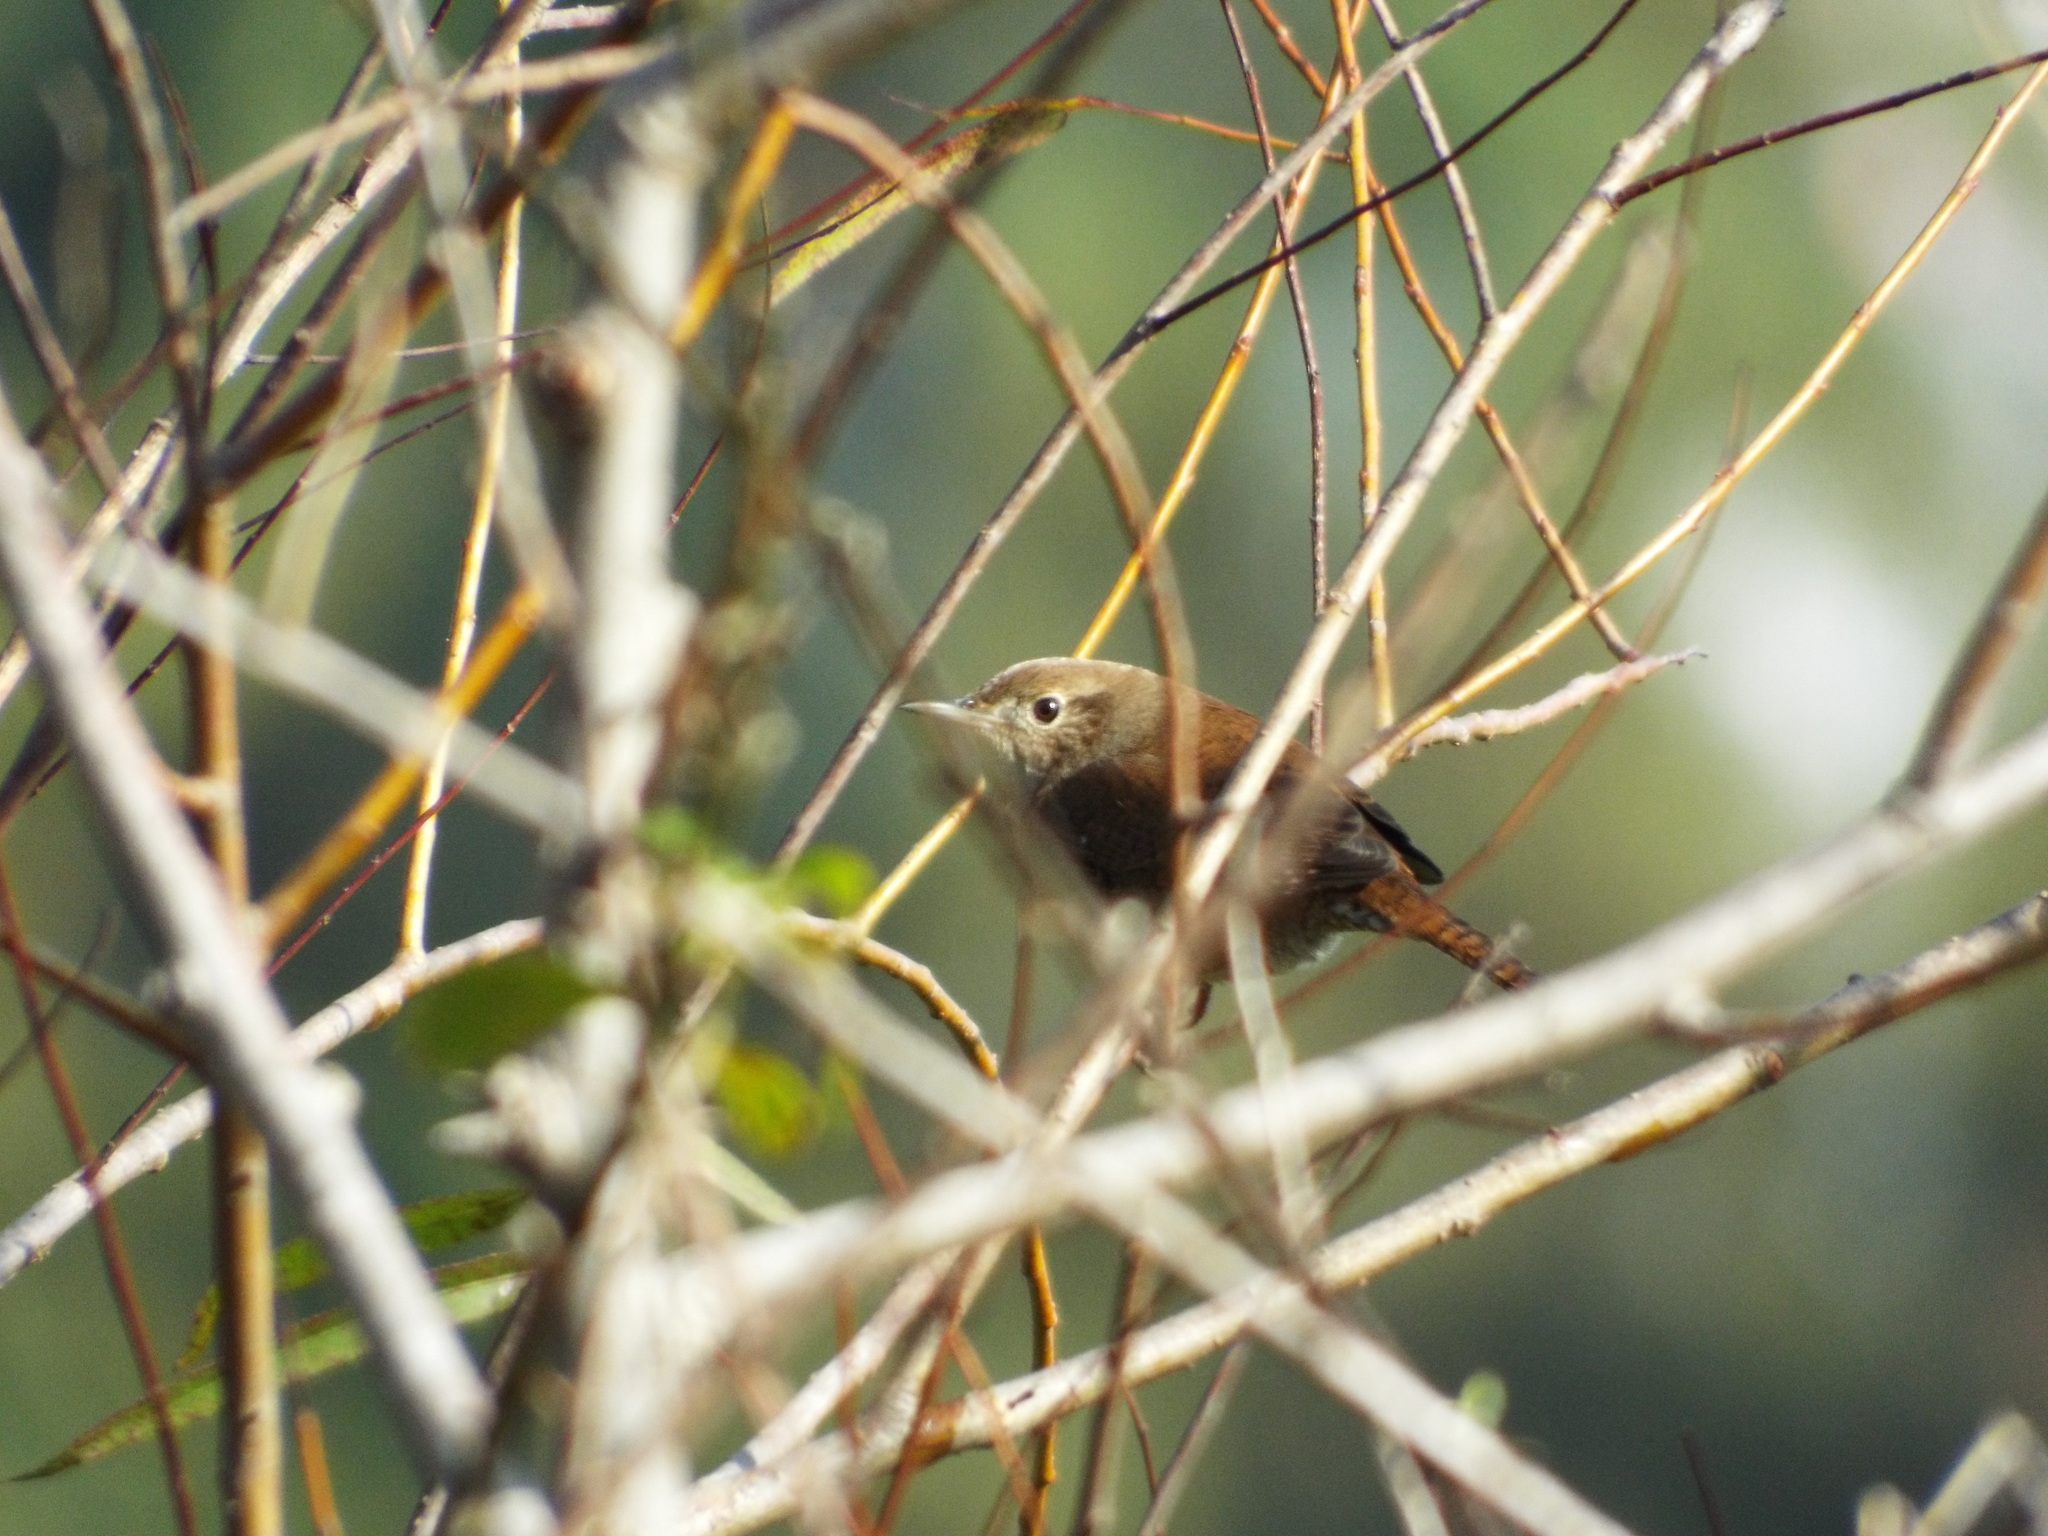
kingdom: Animalia
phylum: Chordata
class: Aves
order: Passeriformes
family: Troglodytidae
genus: Troglodytes
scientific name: Troglodytes aedon
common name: House wren
